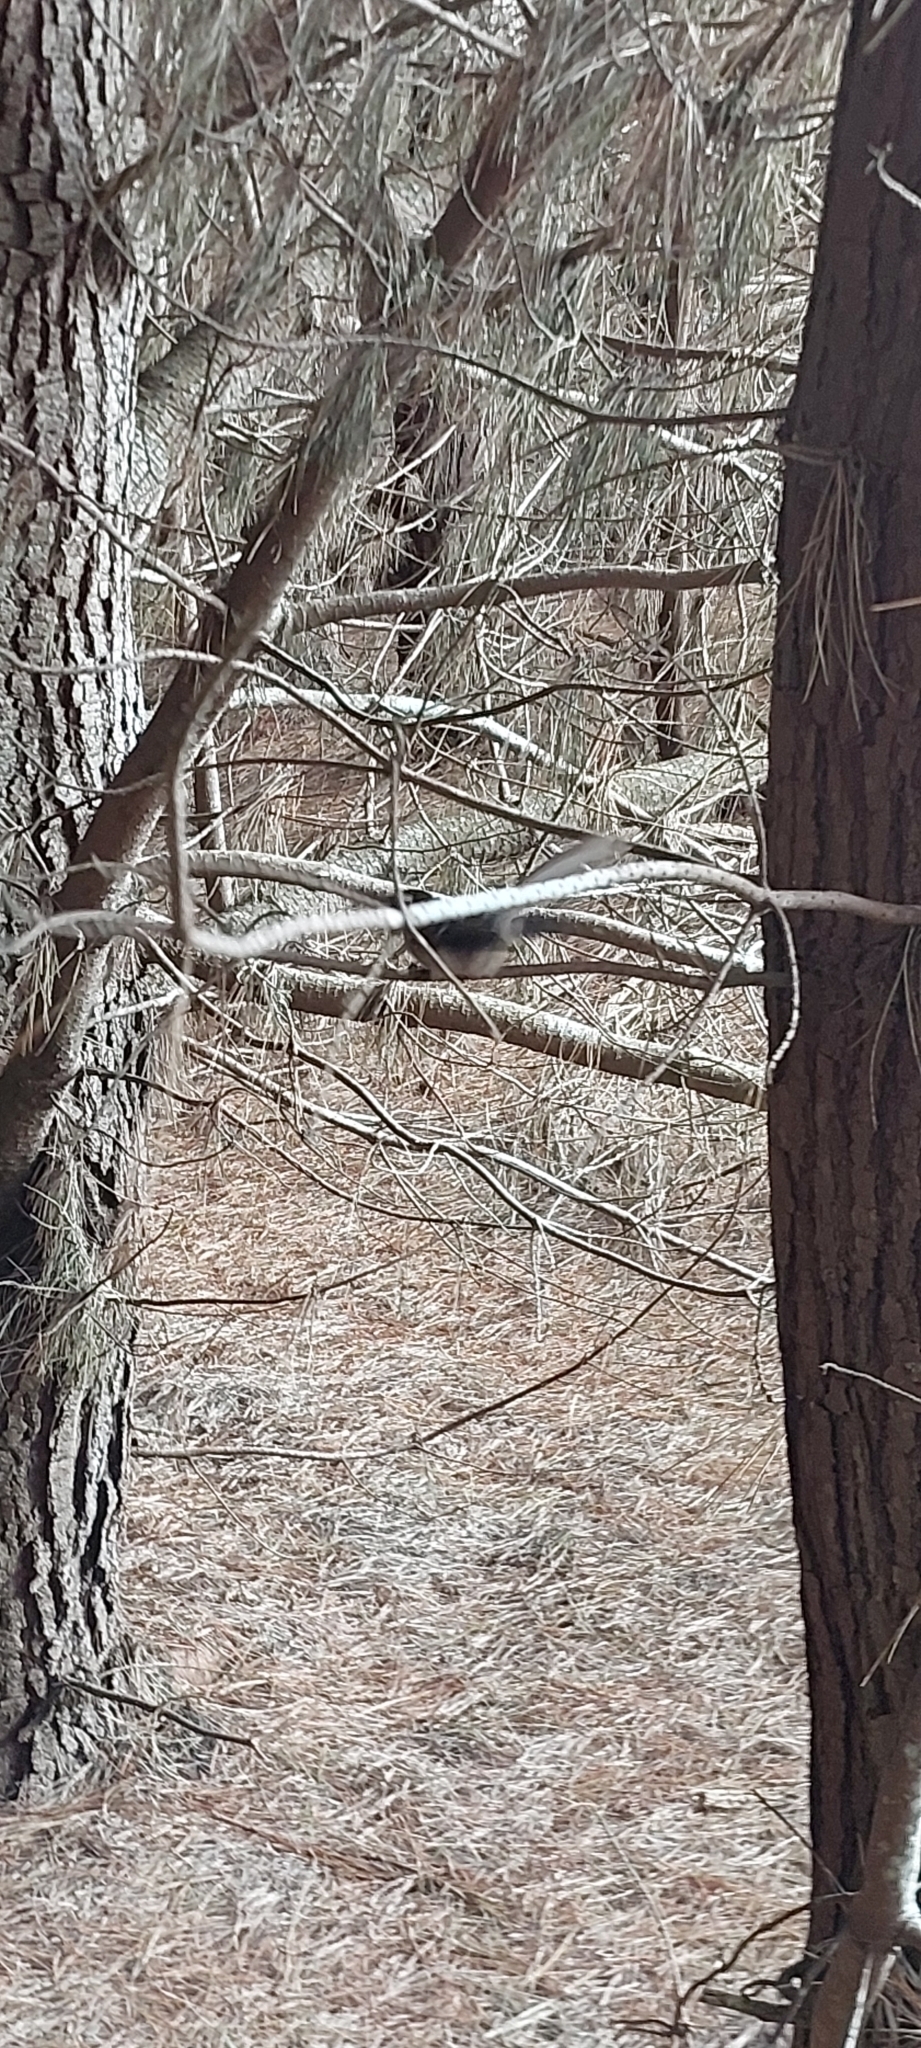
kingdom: Animalia
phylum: Chordata
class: Aves
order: Passeriformes
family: Rhipiduridae
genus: Rhipidura
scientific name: Rhipidura fuliginosa
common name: New zealand fantail
